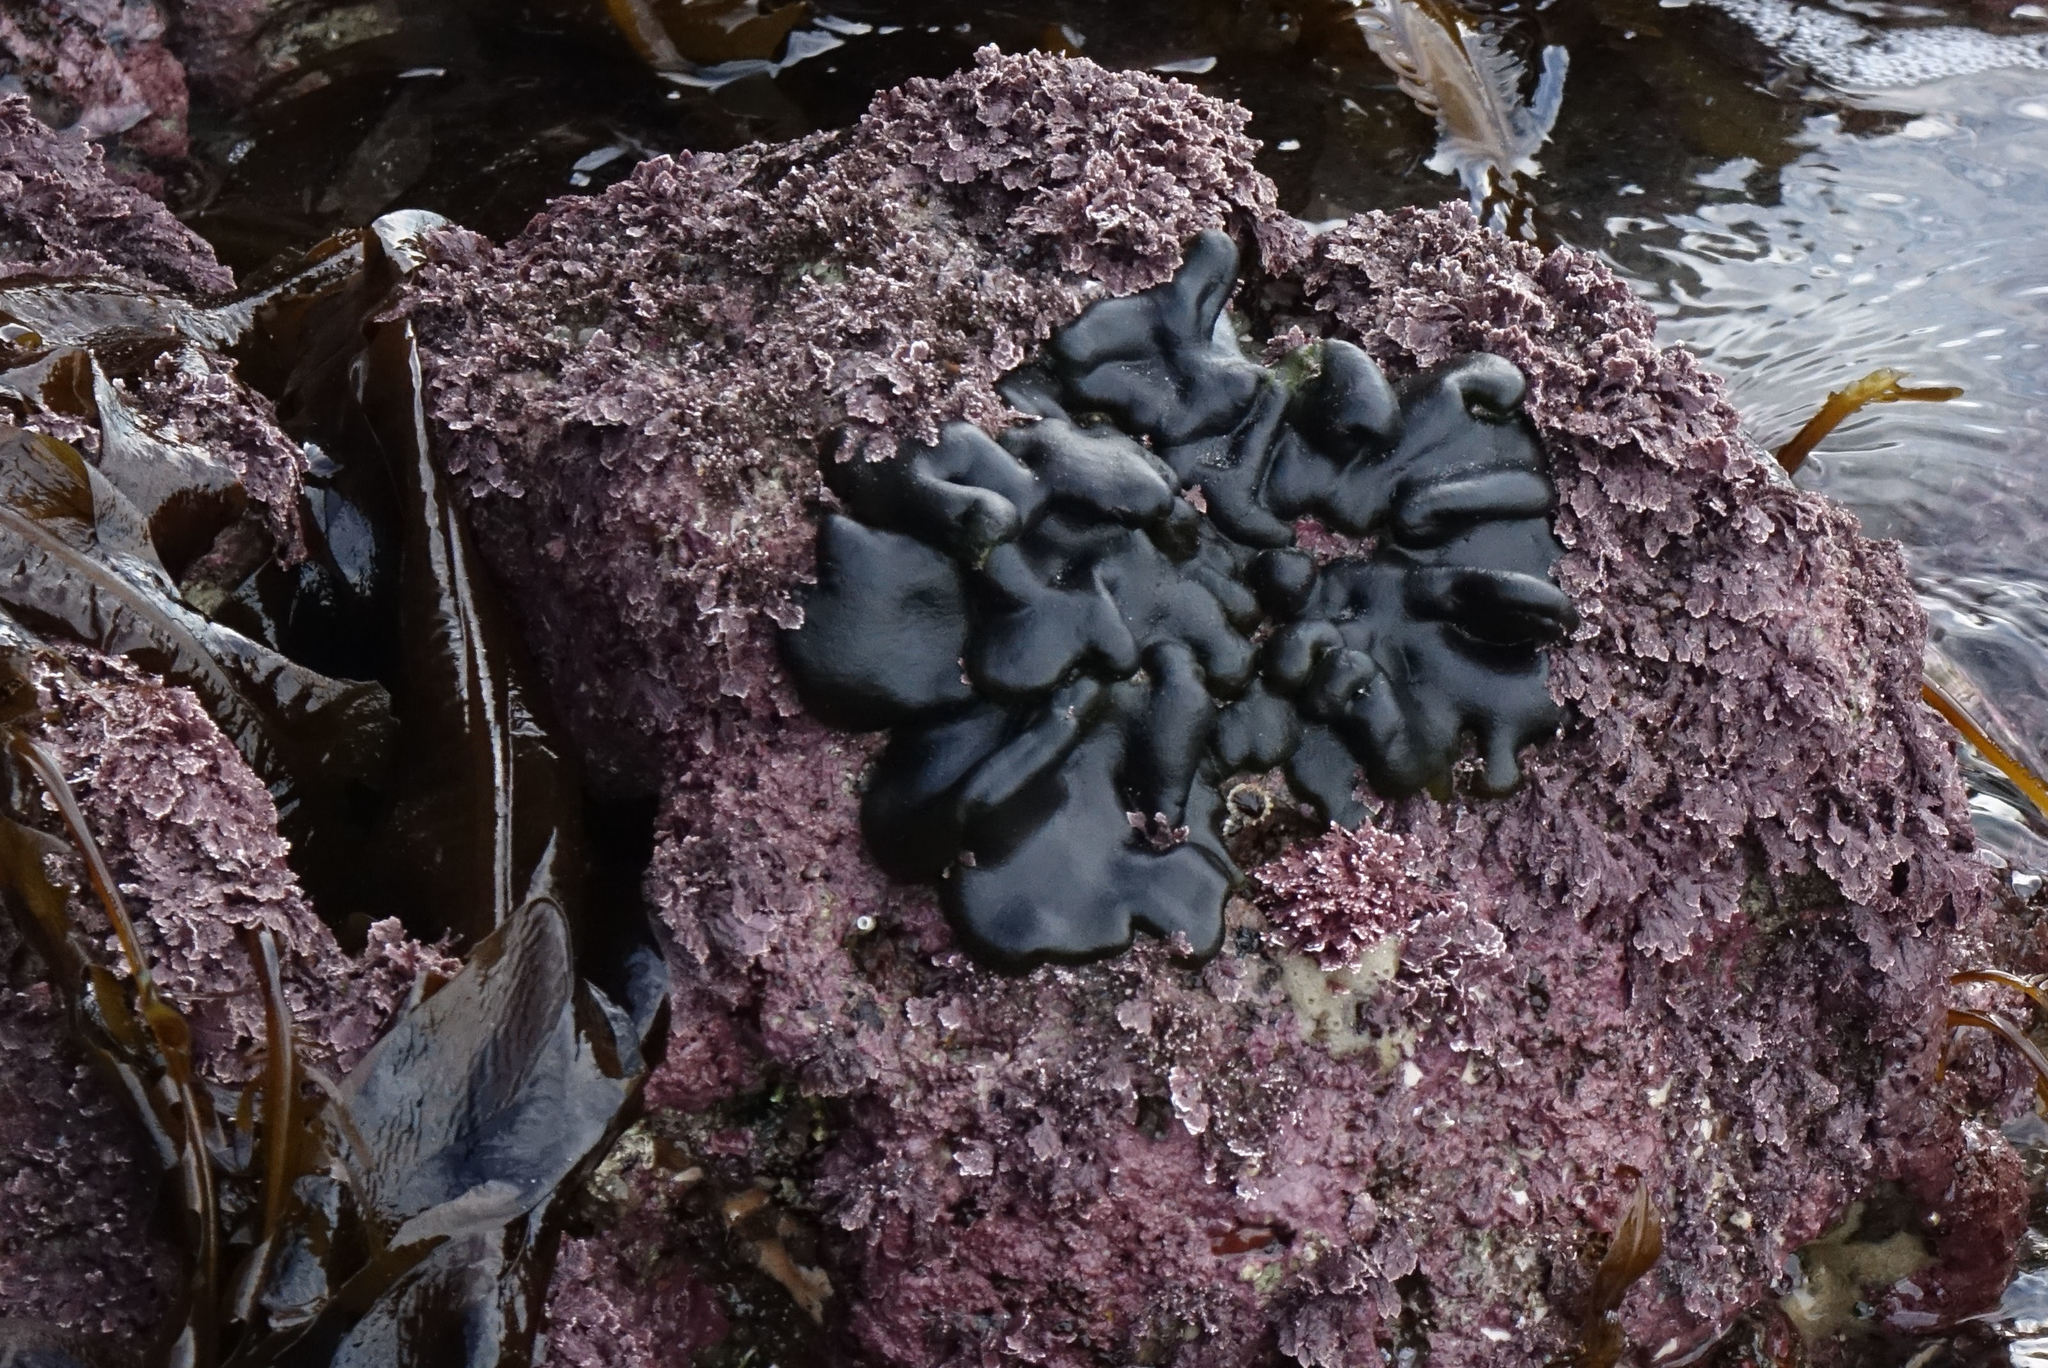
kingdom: Plantae
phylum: Chlorophyta
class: Ulvophyceae
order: Bryopsidales
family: Codiaceae
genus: Codium
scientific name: Codium convolutum
